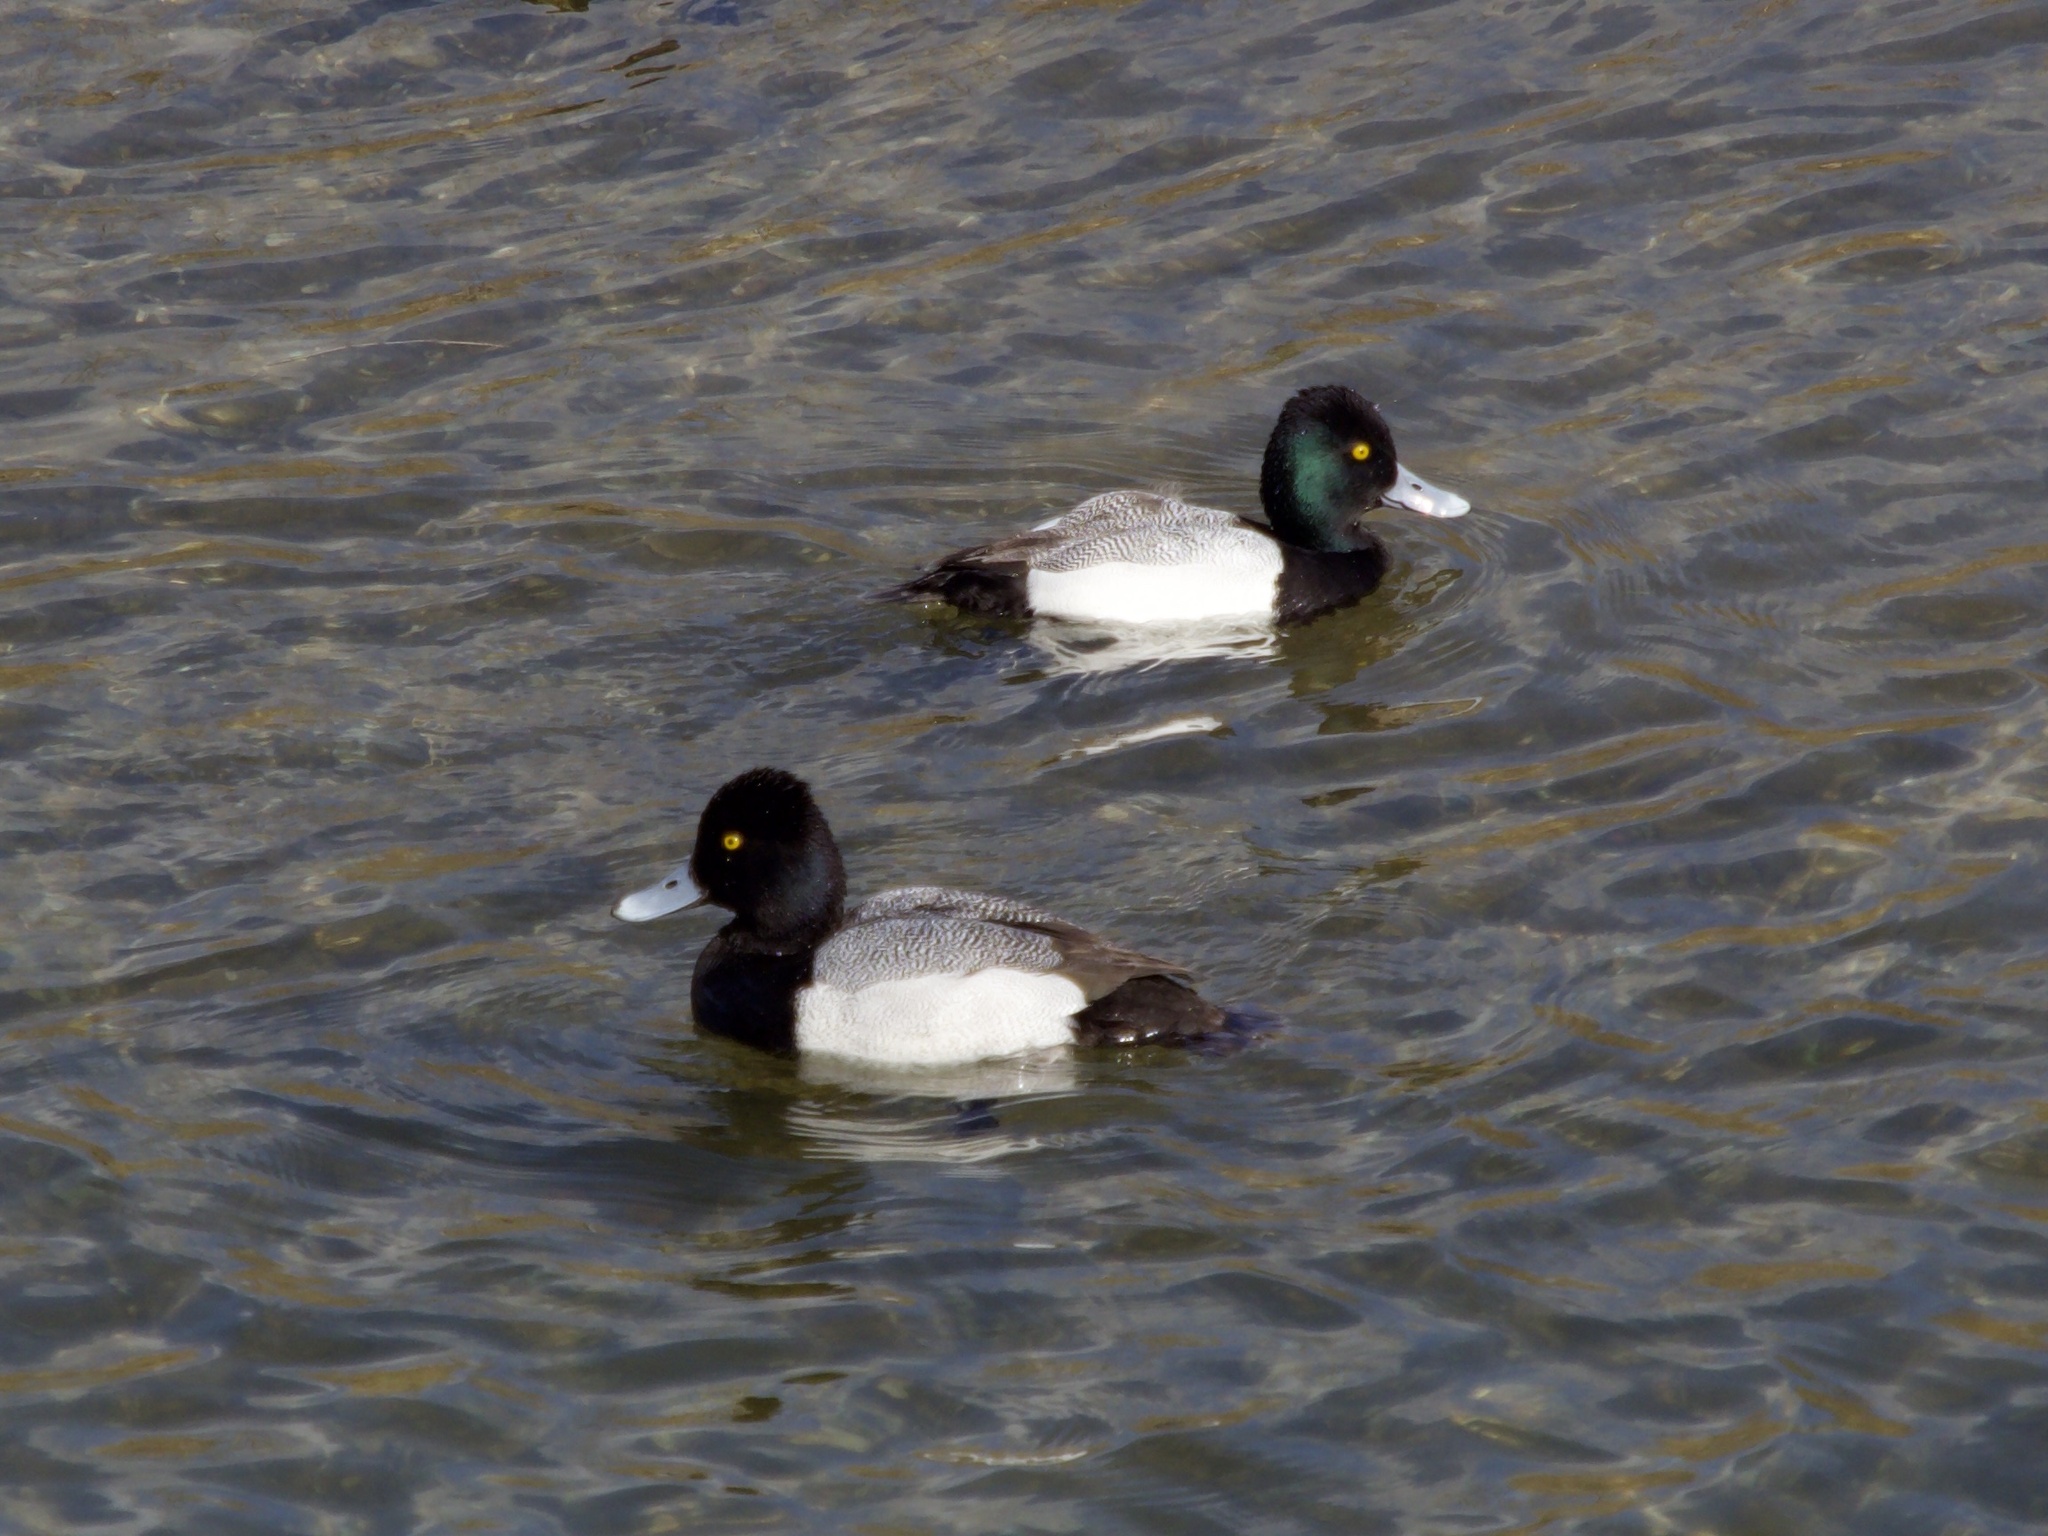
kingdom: Animalia
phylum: Chordata
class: Aves
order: Anseriformes
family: Anatidae
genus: Aythya
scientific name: Aythya affinis
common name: Lesser scaup
